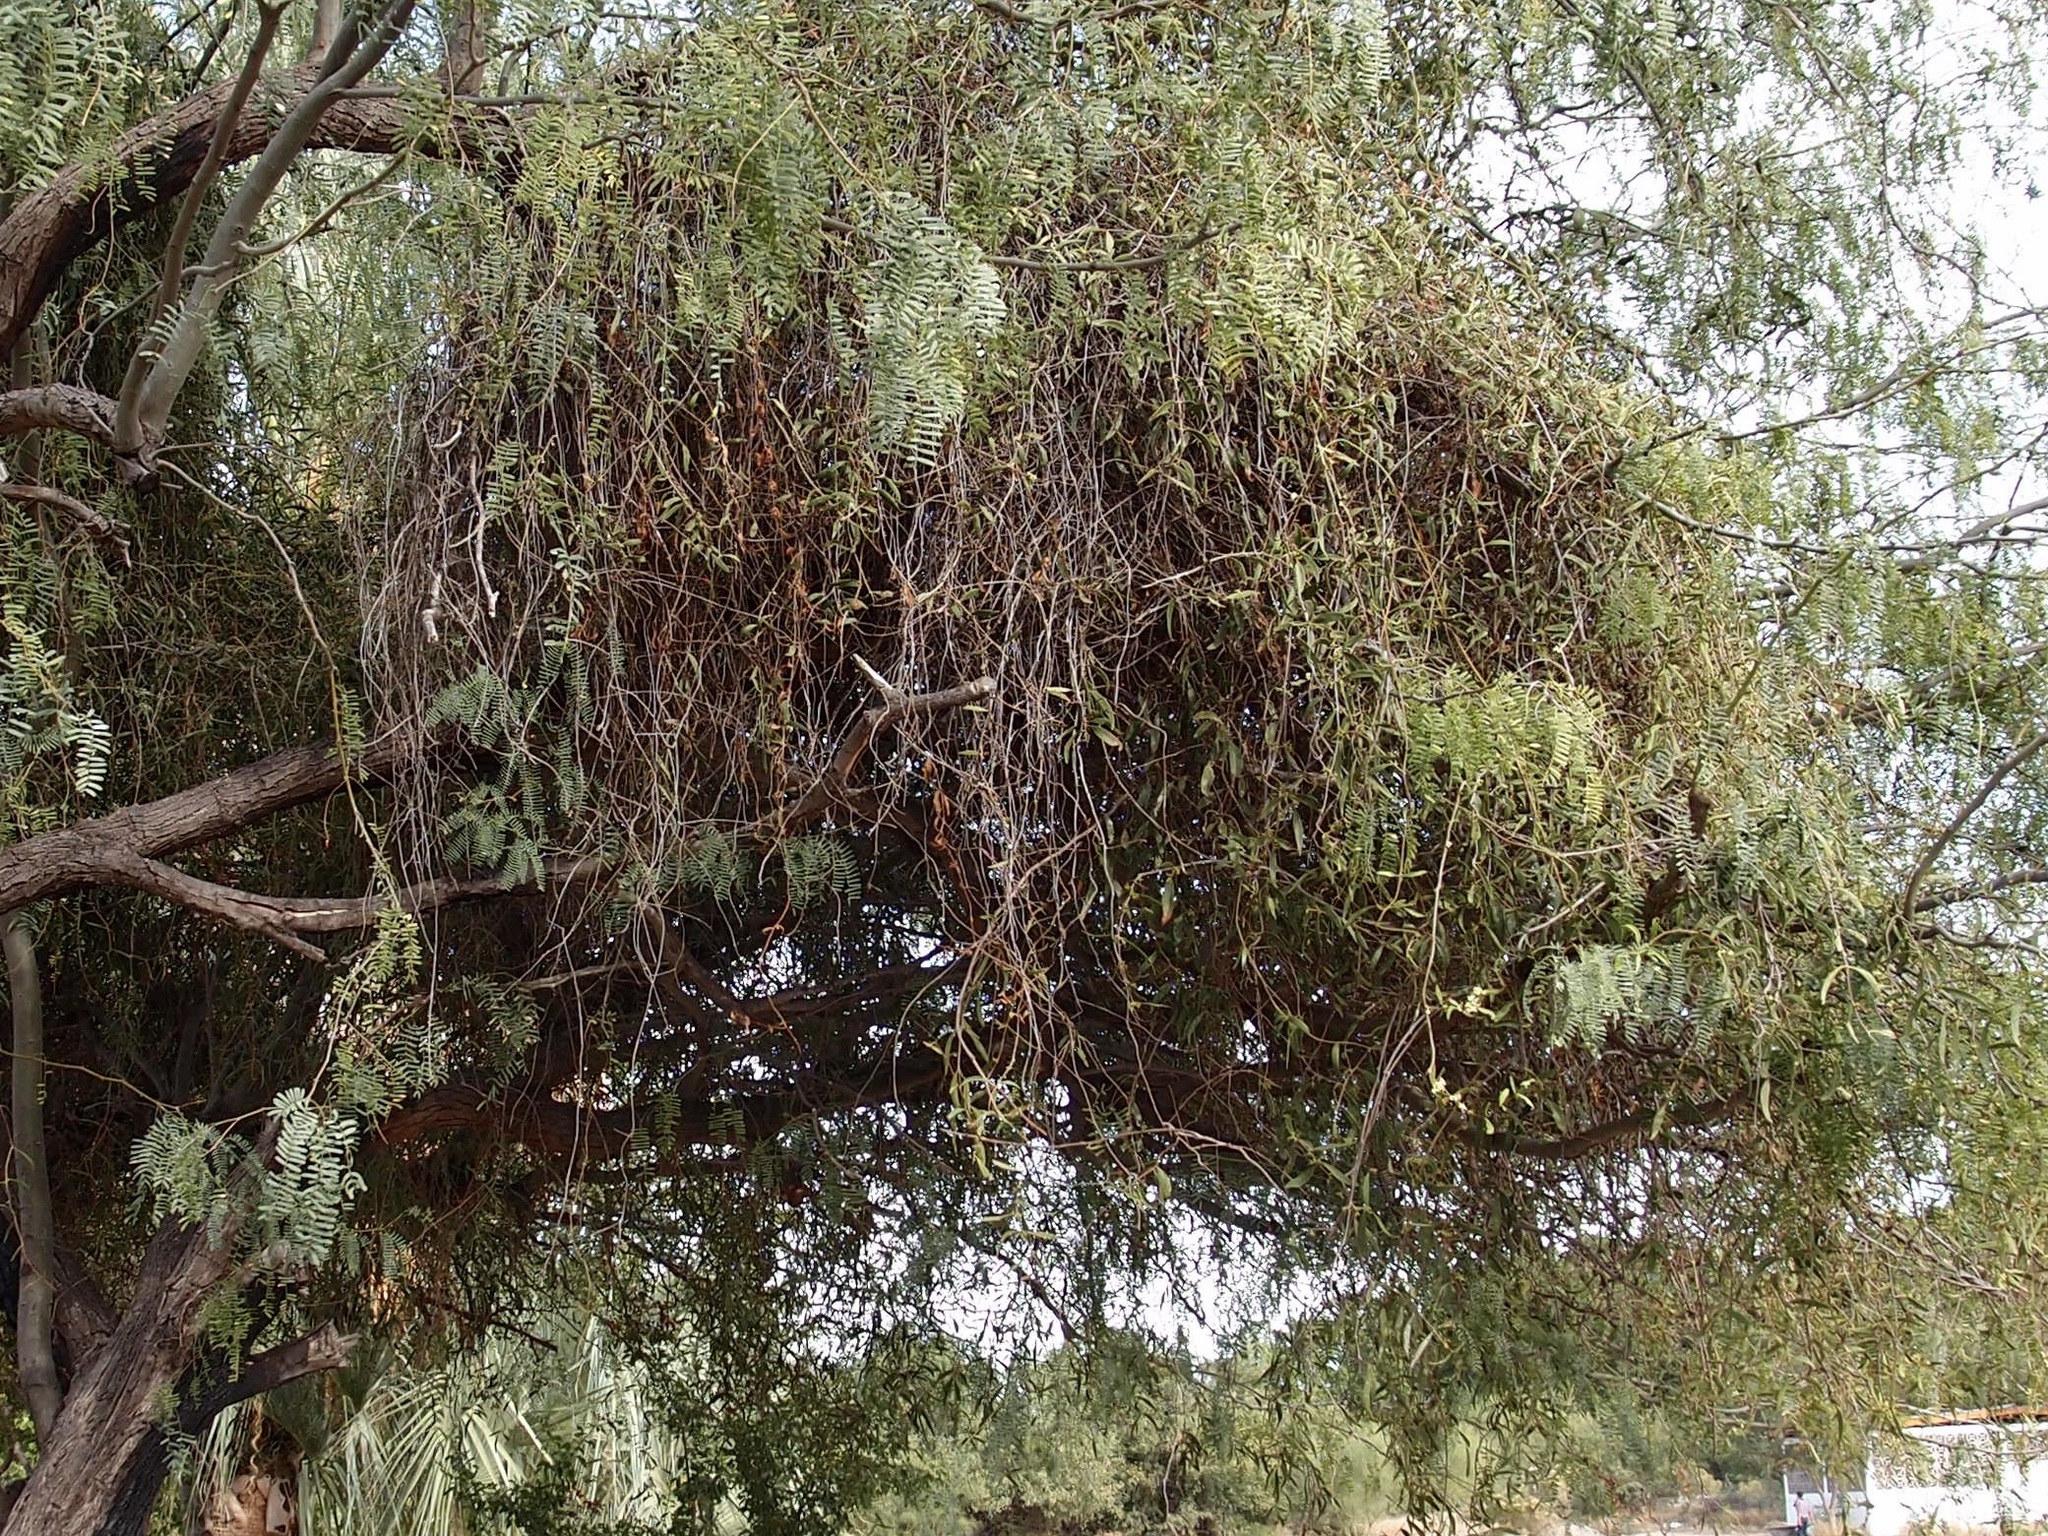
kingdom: Plantae
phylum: Tracheophyta
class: Magnoliopsida
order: Santalales
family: Loranthaceae
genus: Struthanthus
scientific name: Struthanthus palmeri
